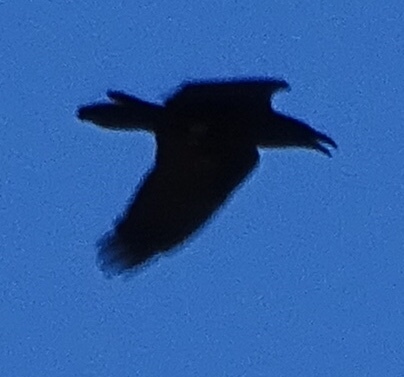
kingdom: Animalia
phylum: Chordata
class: Aves
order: Passeriformes
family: Corvidae
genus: Corvus
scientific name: Corvus corax
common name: Common raven
